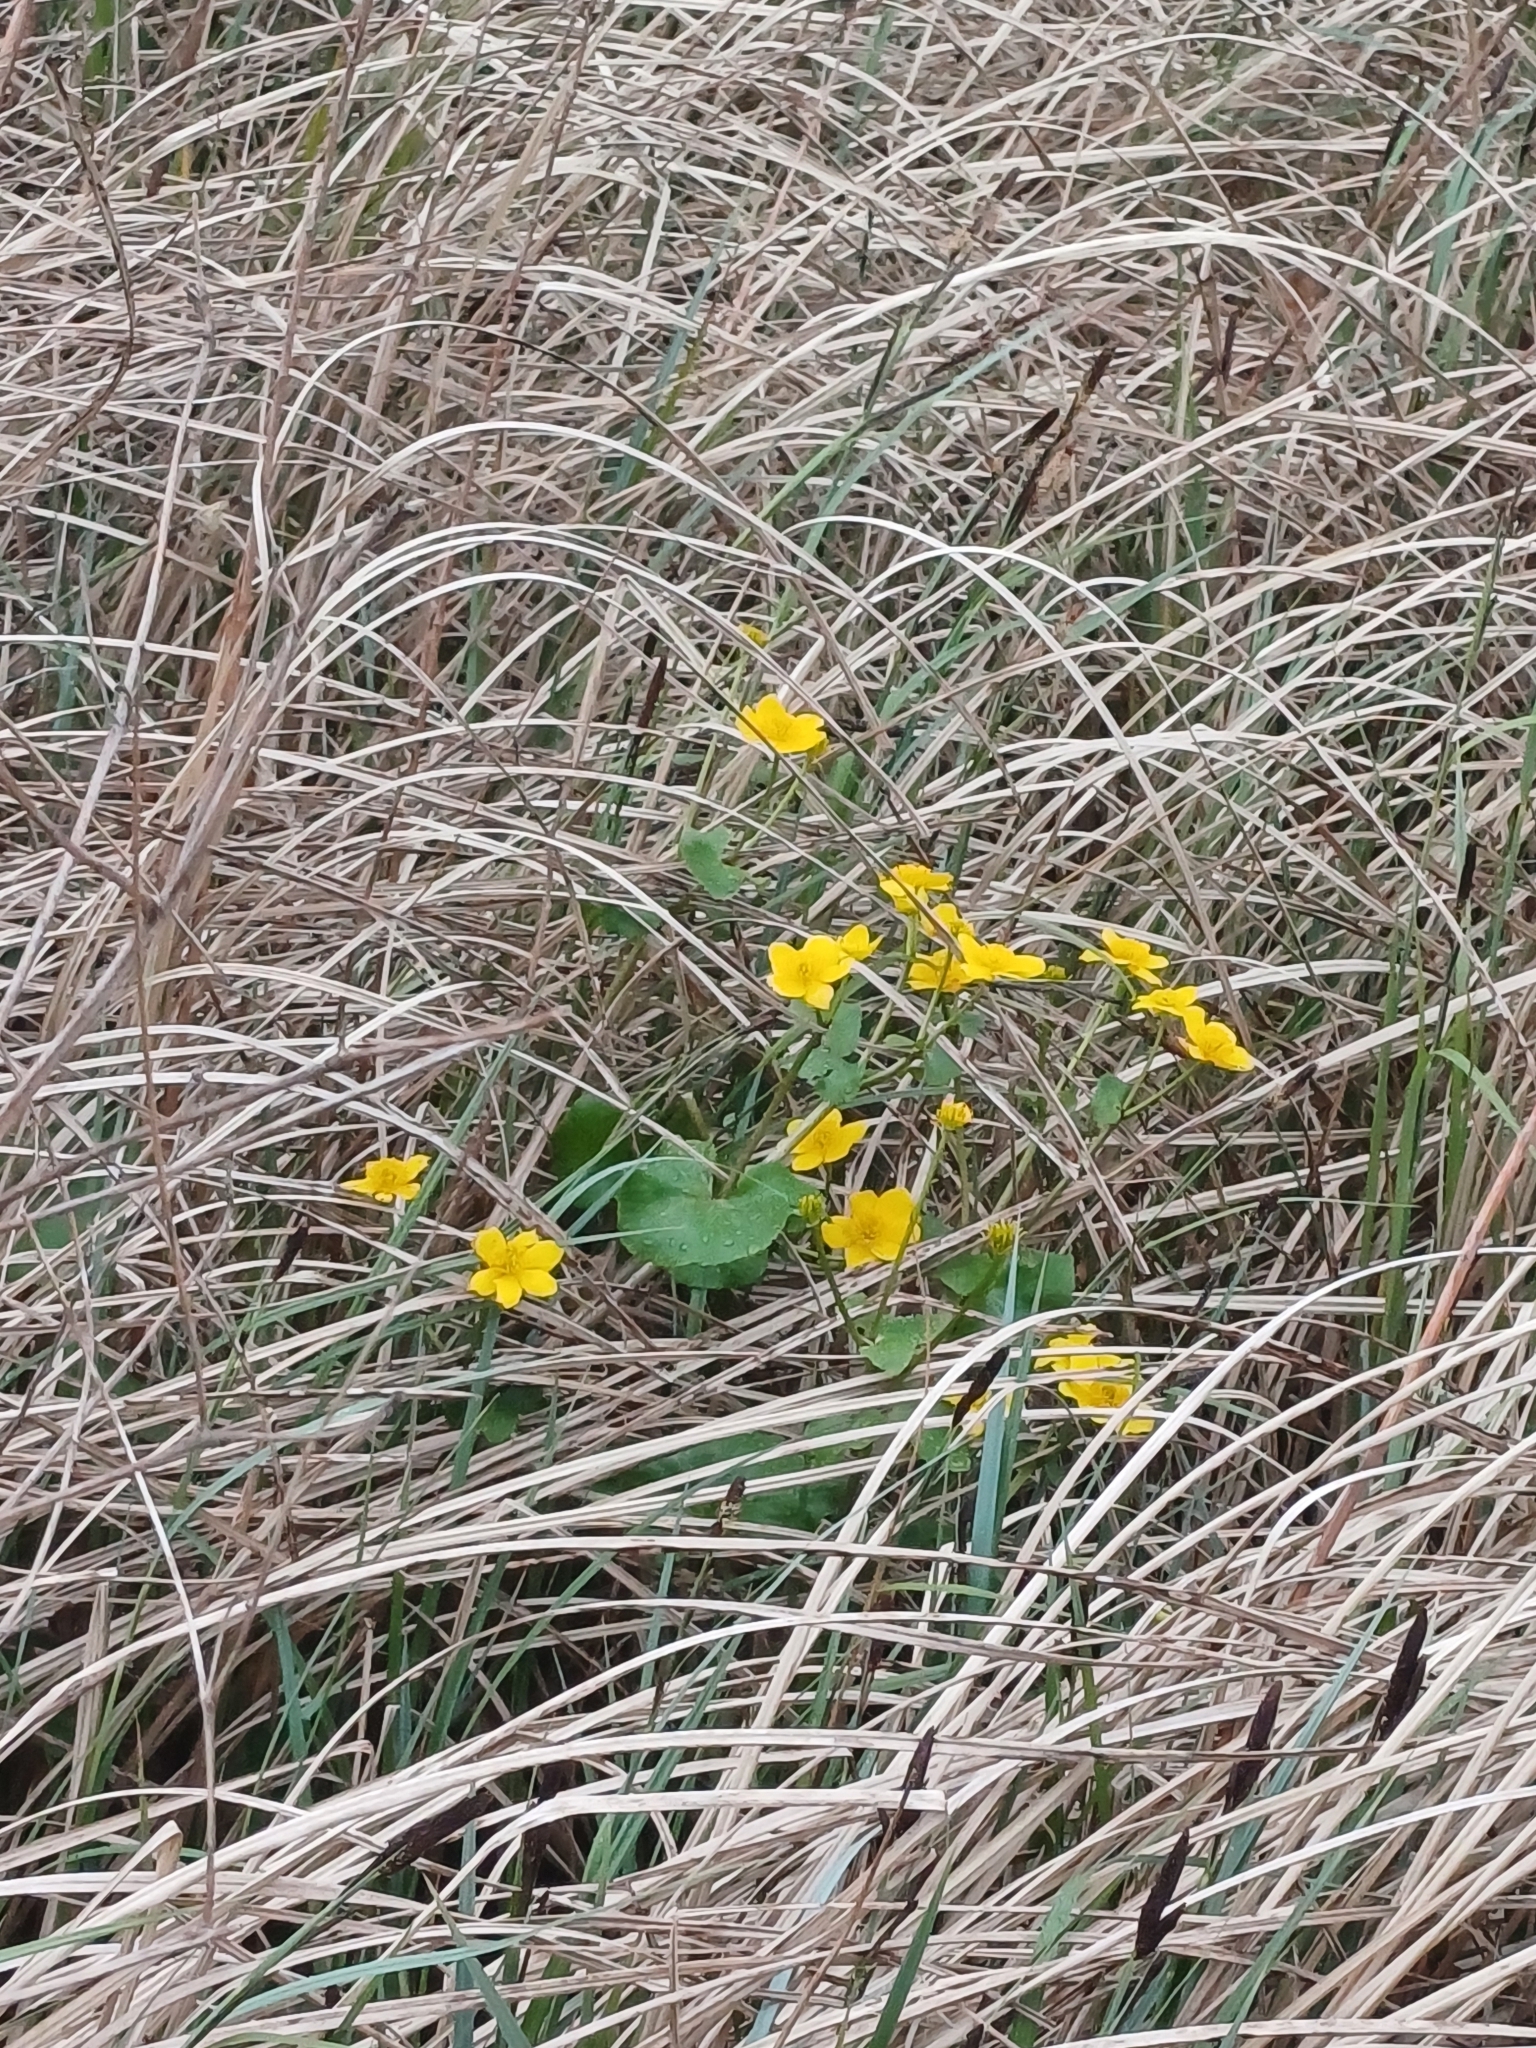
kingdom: Plantae
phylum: Tracheophyta
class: Magnoliopsida
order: Ranunculales
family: Ranunculaceae
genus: Caltha
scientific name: Caltha palustris
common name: Marsh marigold
